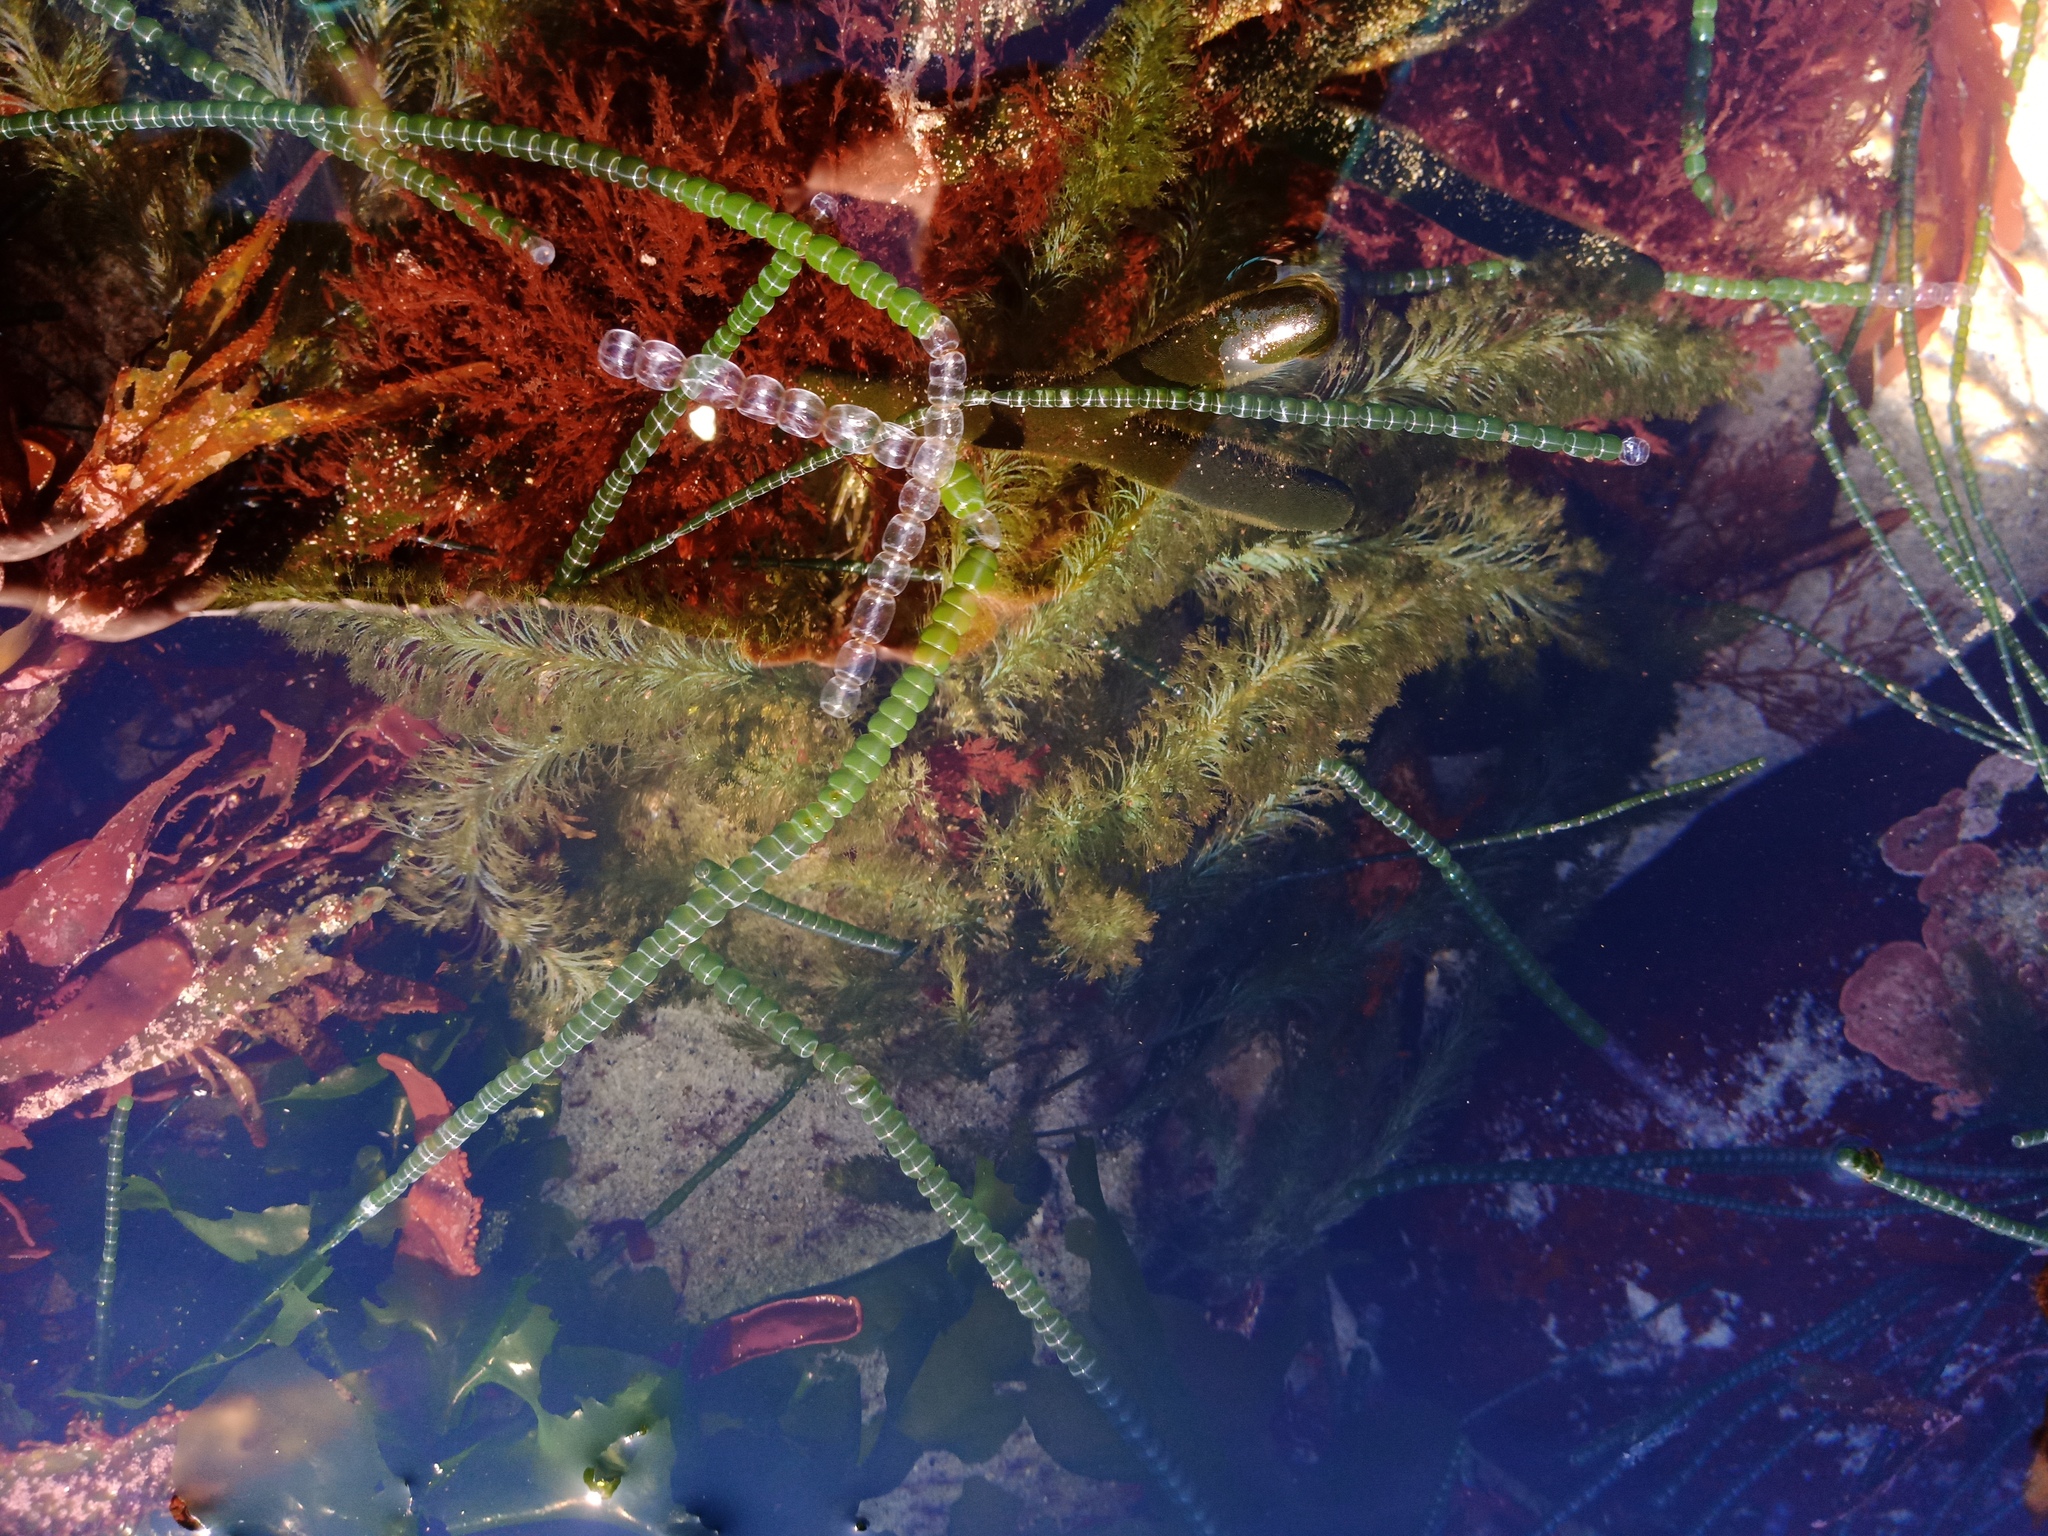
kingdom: Plantae
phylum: Chlorophyta
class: Ulvophyceae
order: Cladophorales
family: Cladophoraceae
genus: Chaetomorpha
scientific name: Chaetomorpha coliformis
